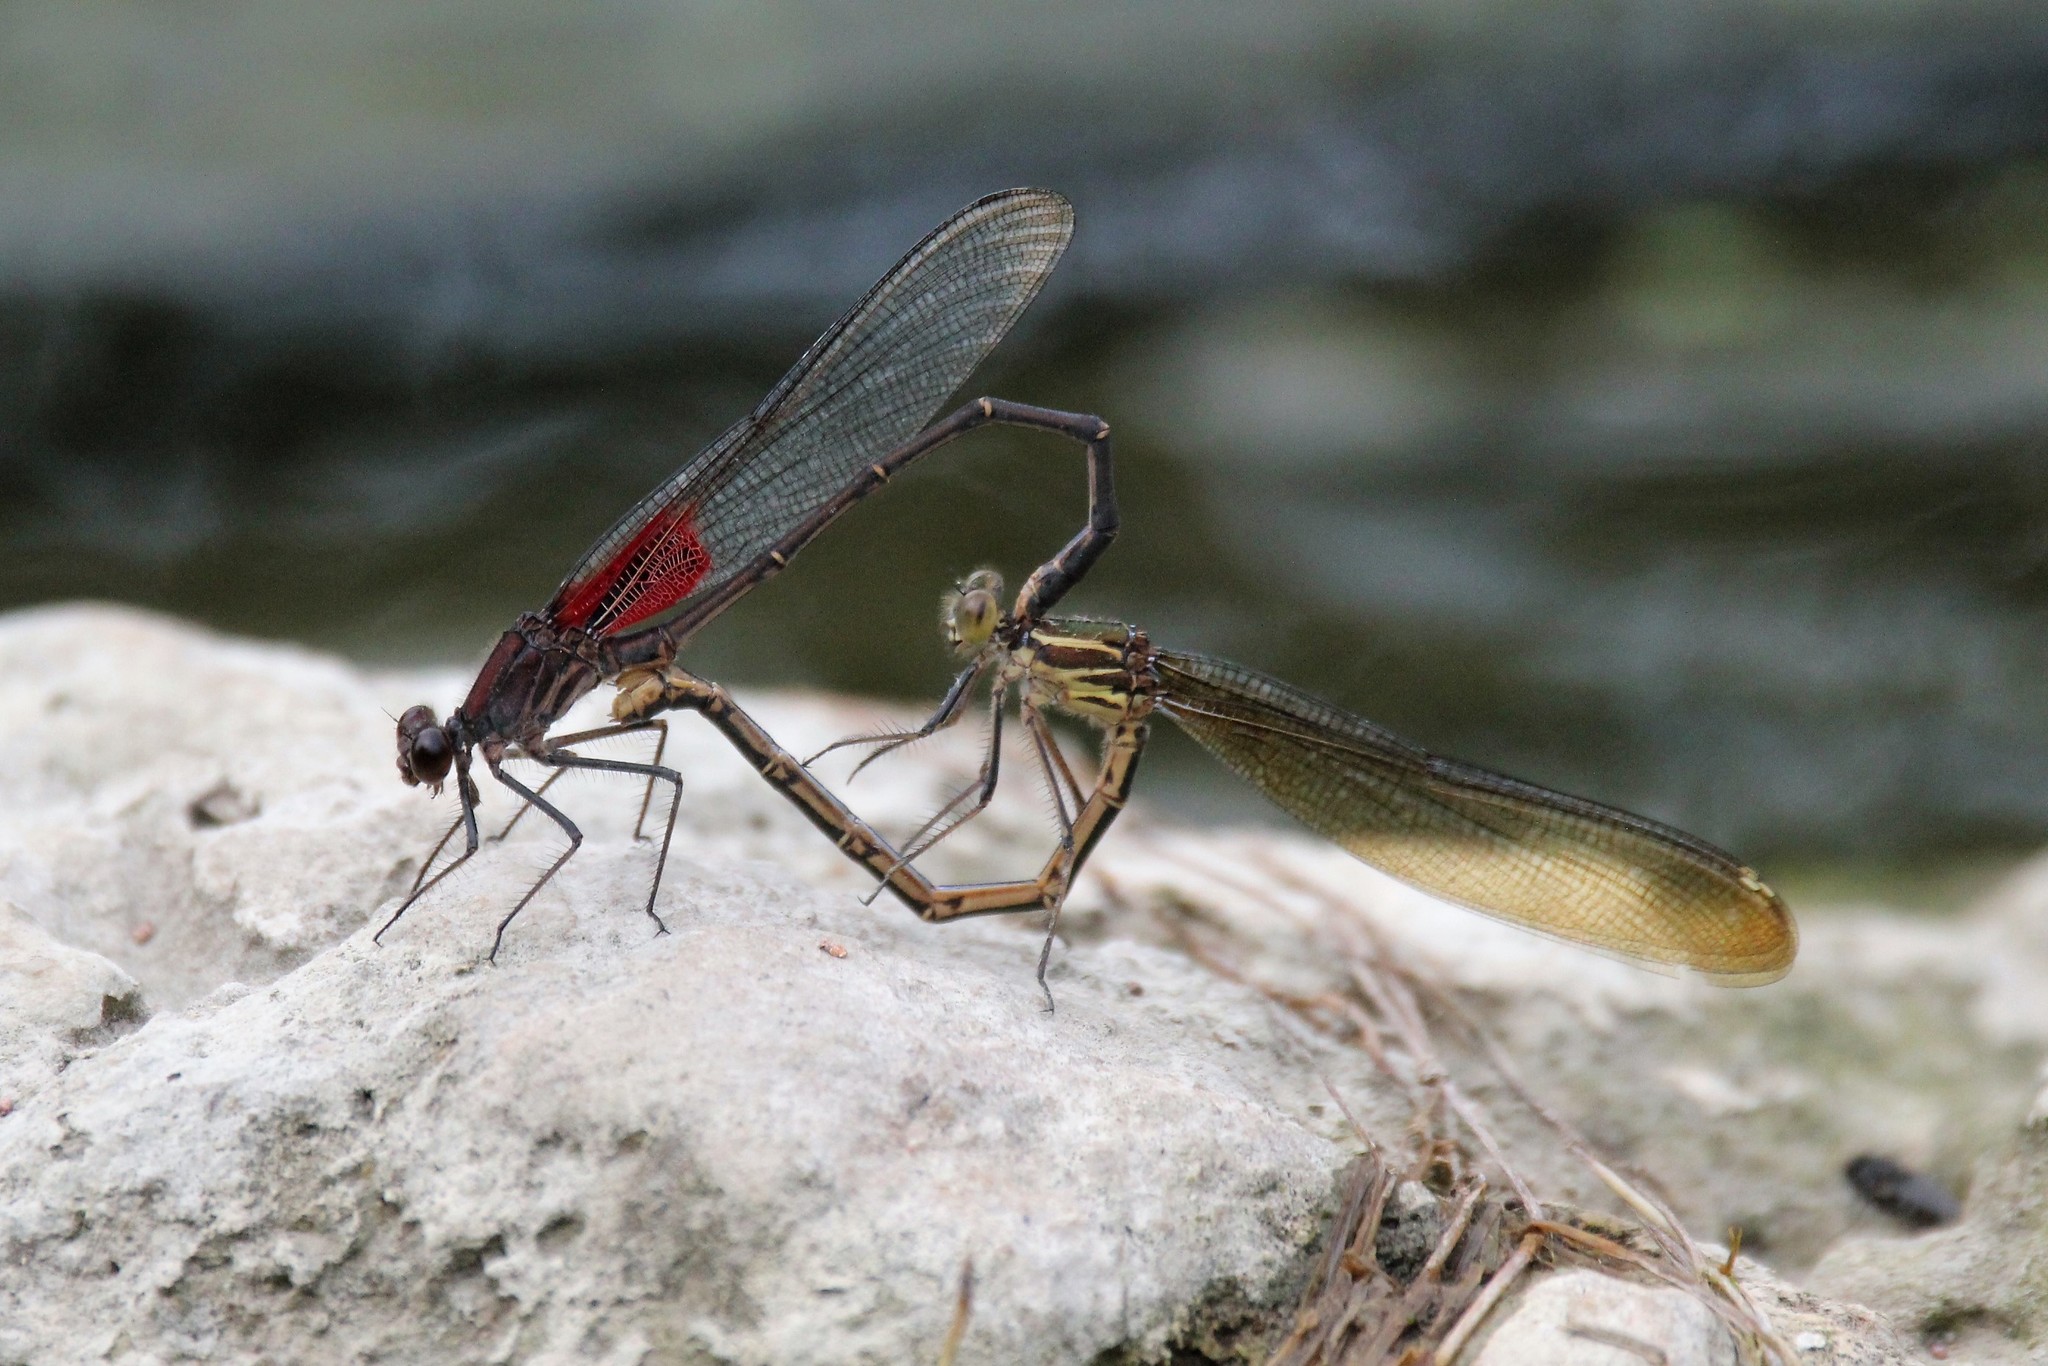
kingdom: Animalia
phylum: Arthropoda
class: Insecta
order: Odonata
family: Calopterygidae
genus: Hetaerina
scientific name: Hetaerina americana
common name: American rubyspot
